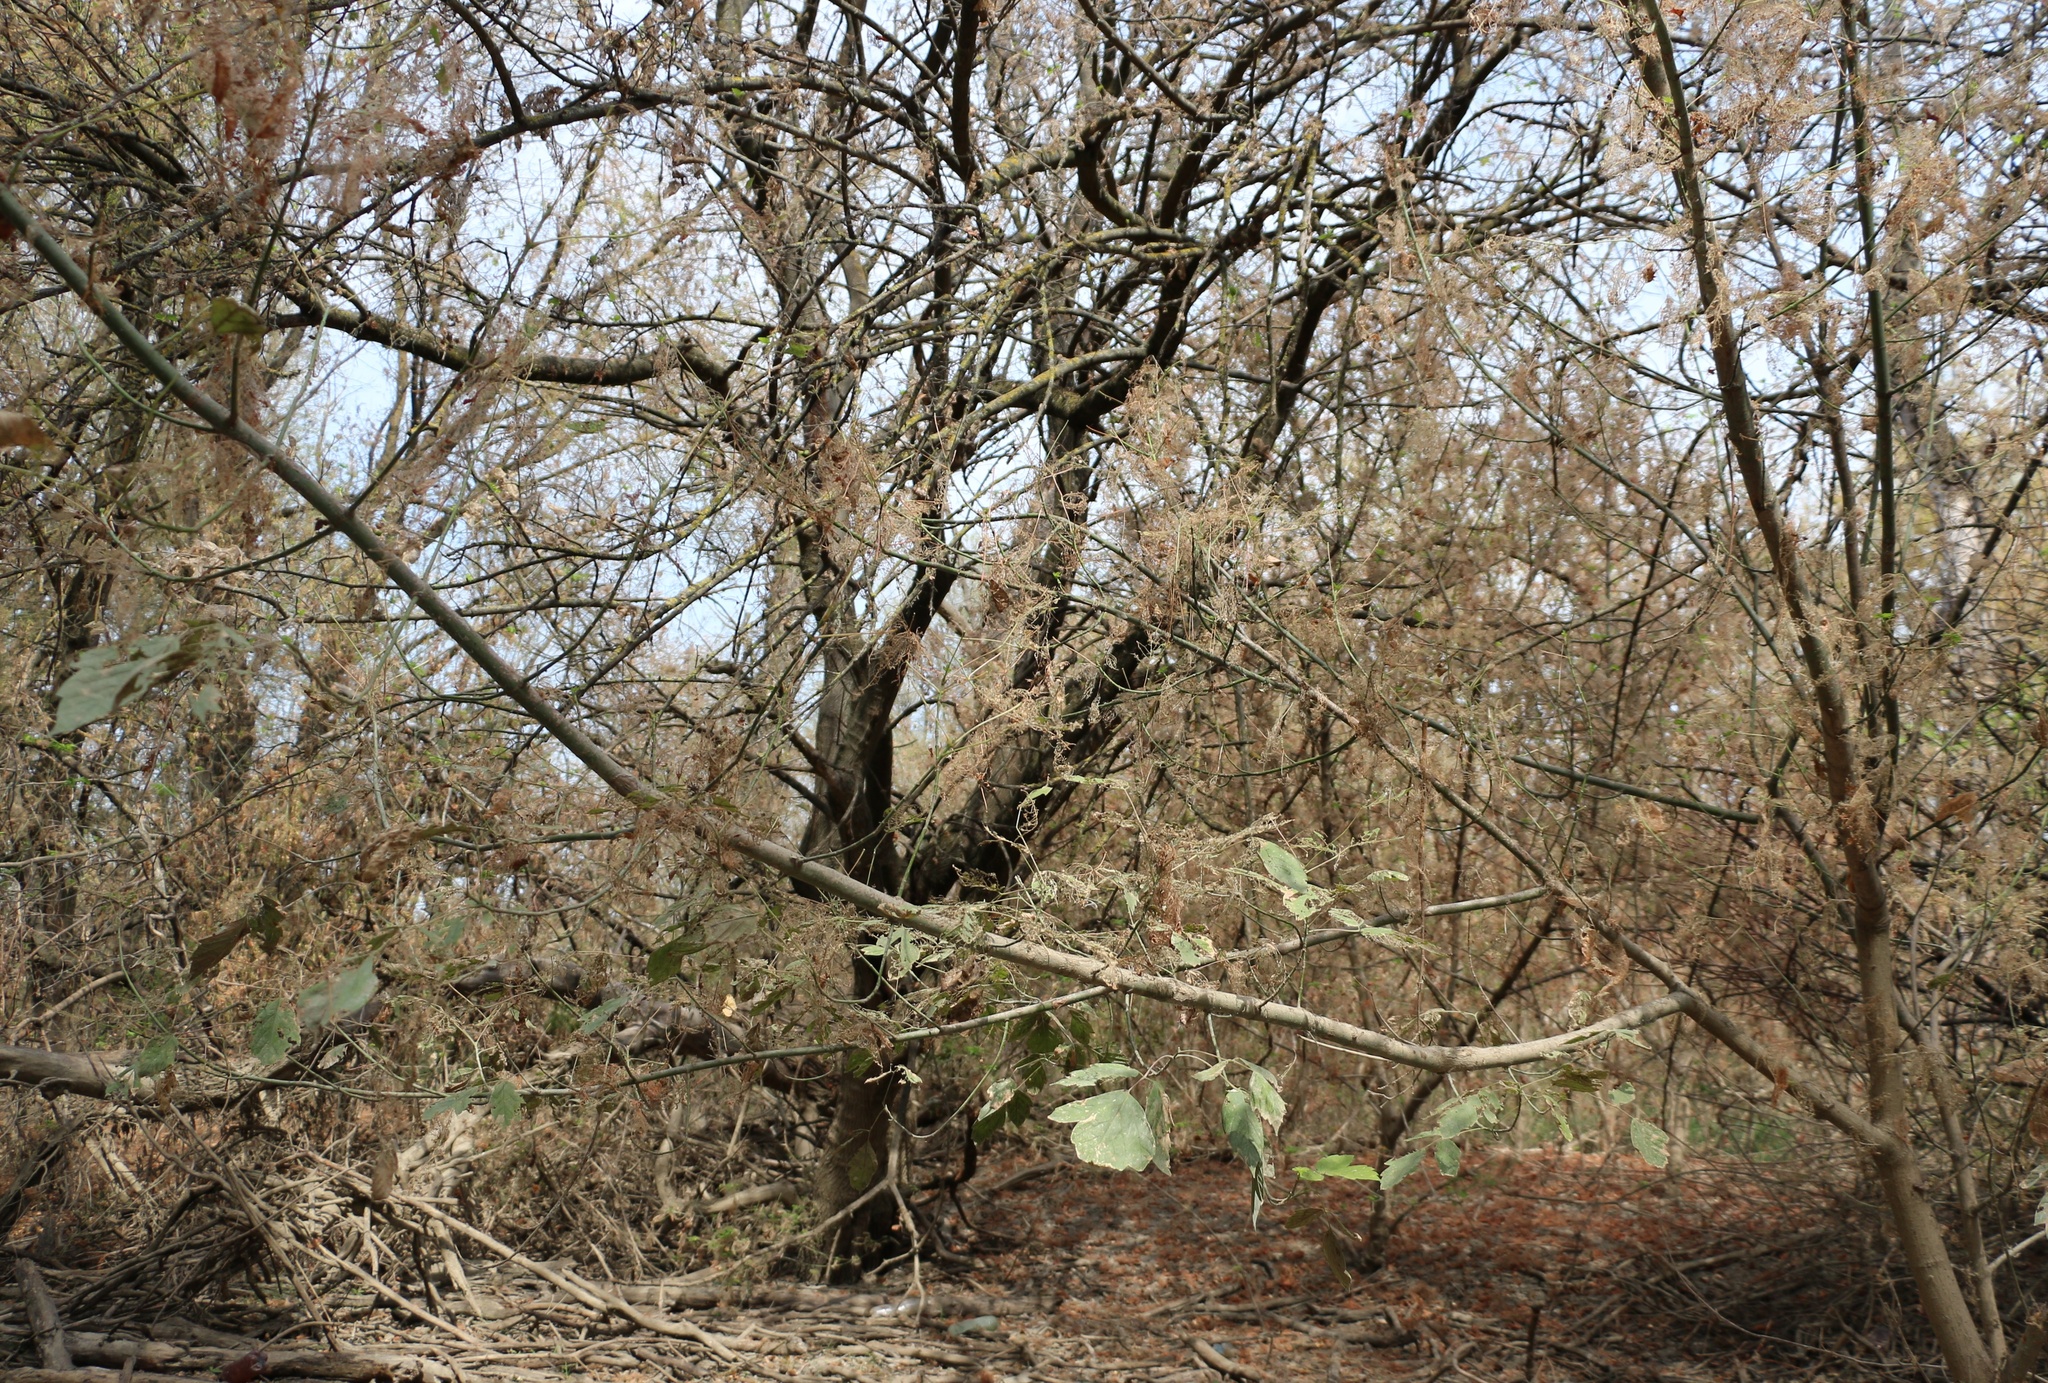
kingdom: Plantae
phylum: Tracheophyta
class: Magnoliopsida
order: Sapindales
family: Sapindaceae
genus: Acer
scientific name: Acer negundo
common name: Ashleaf maple
